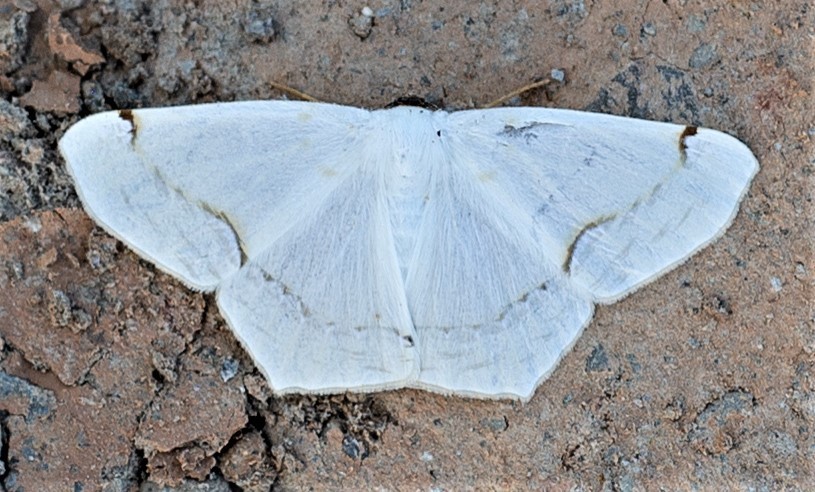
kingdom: Animalia
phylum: Arthropoda
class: Insecta
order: Lepidoptera
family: Geometridae
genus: Sericoptera
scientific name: Sericoptera penicillata
